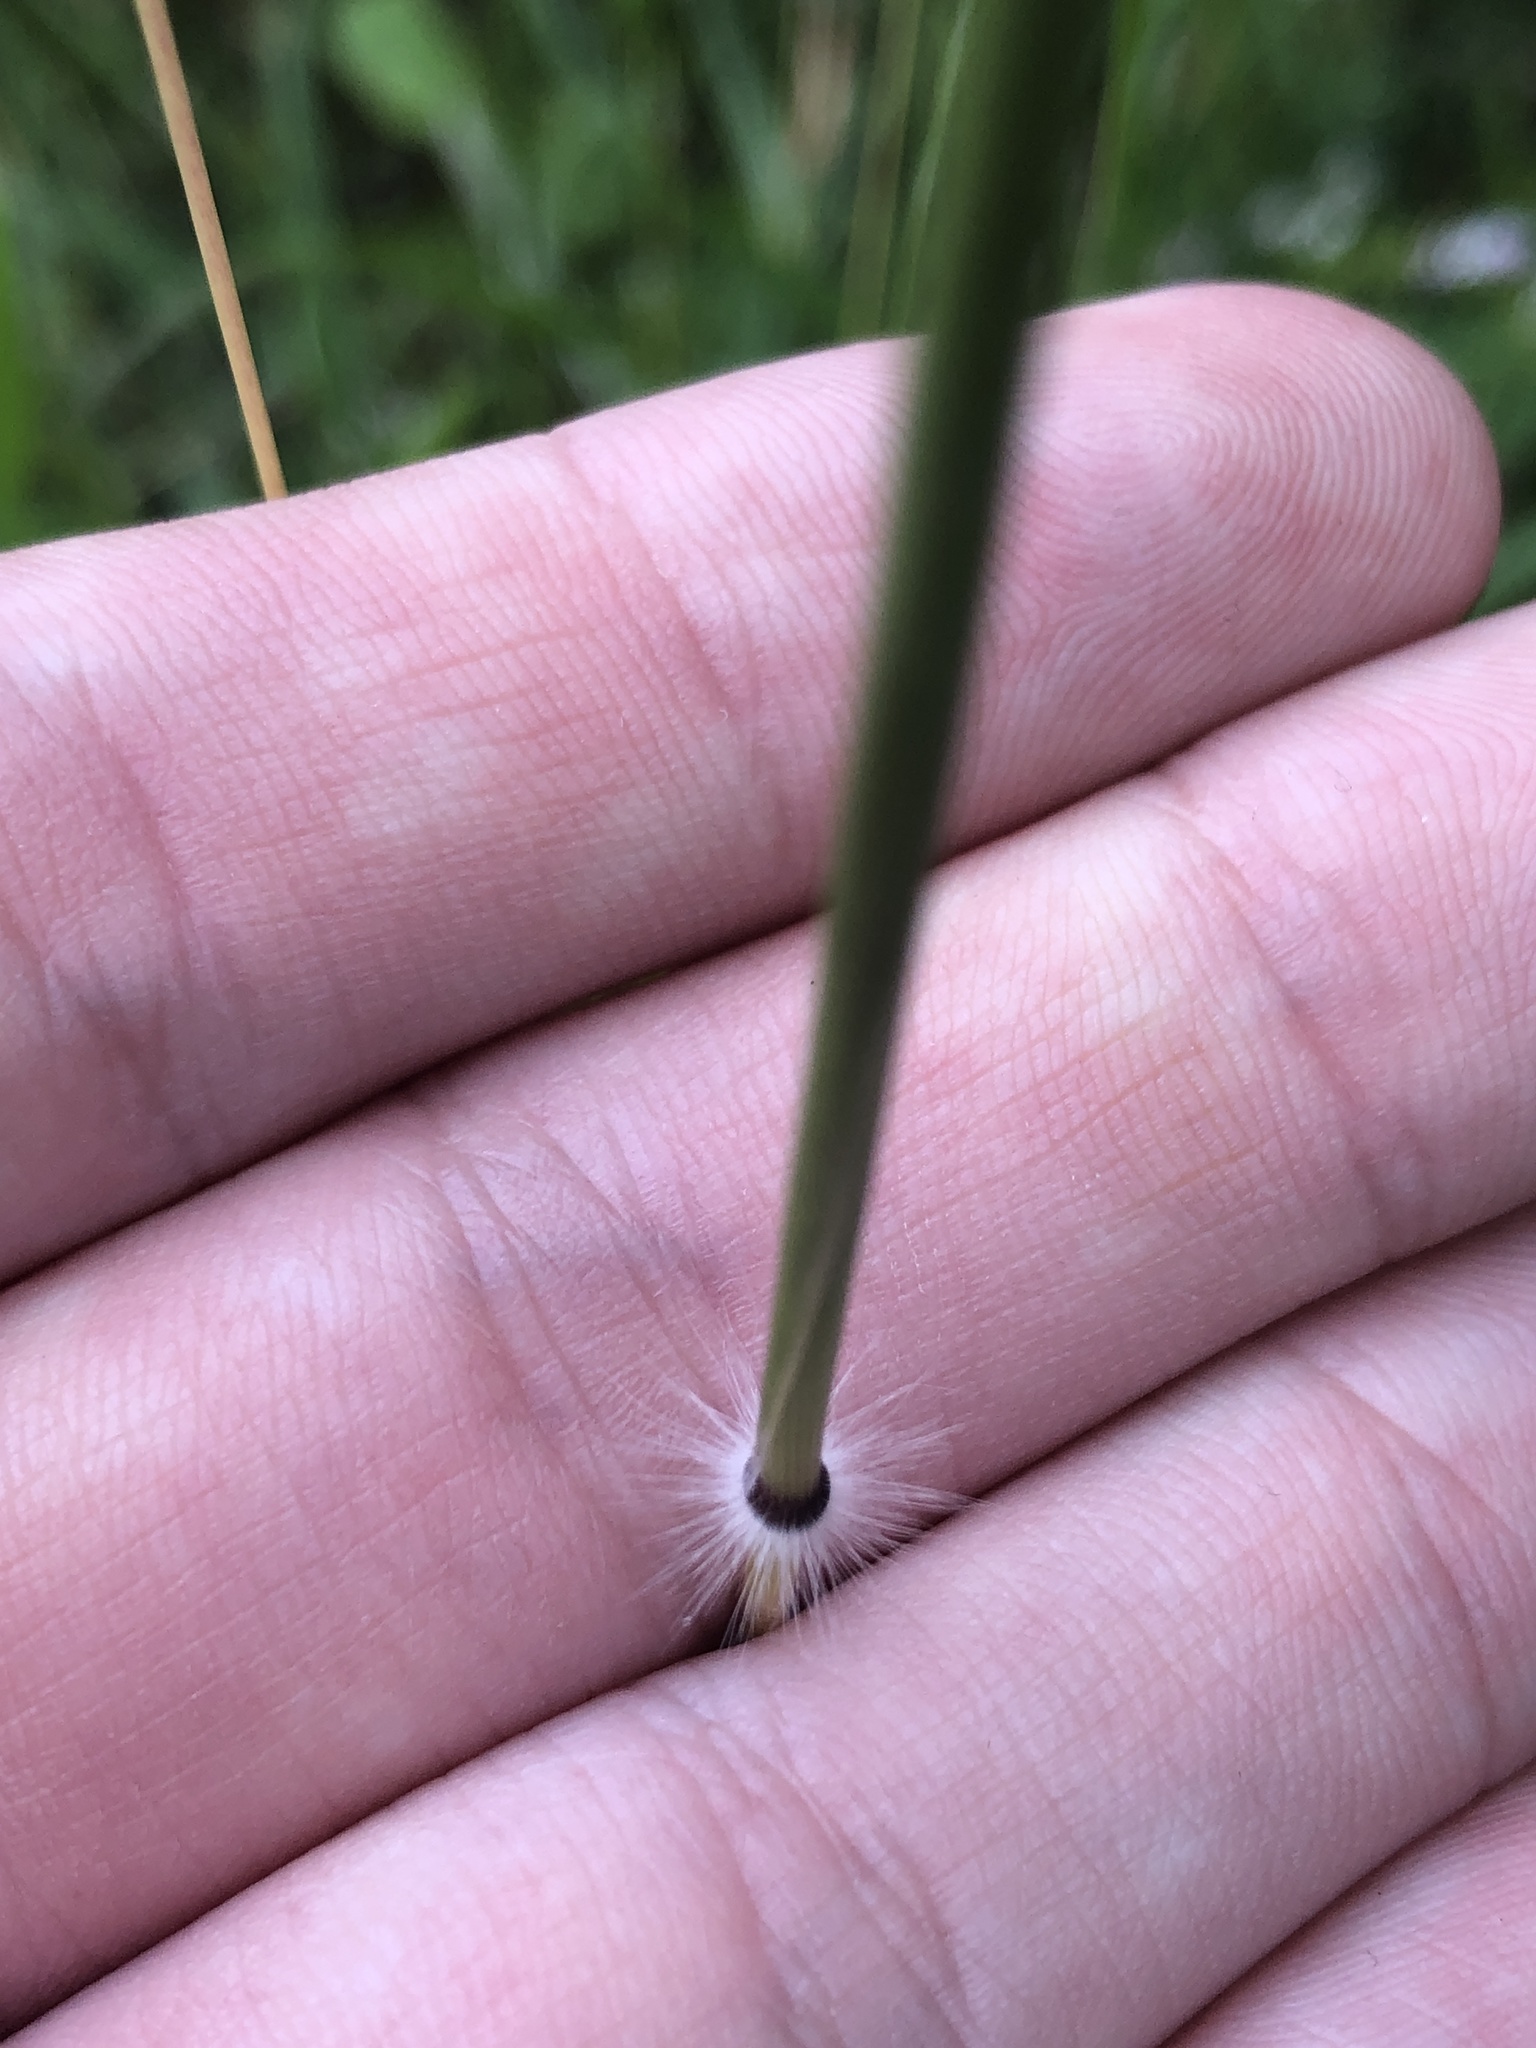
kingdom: Plantae
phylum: Tracheophyta
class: Liliopsida
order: Poales
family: Poaceae
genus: Dichanthium
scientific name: Dichanthium annulatum
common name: Kleberg's bluestem
